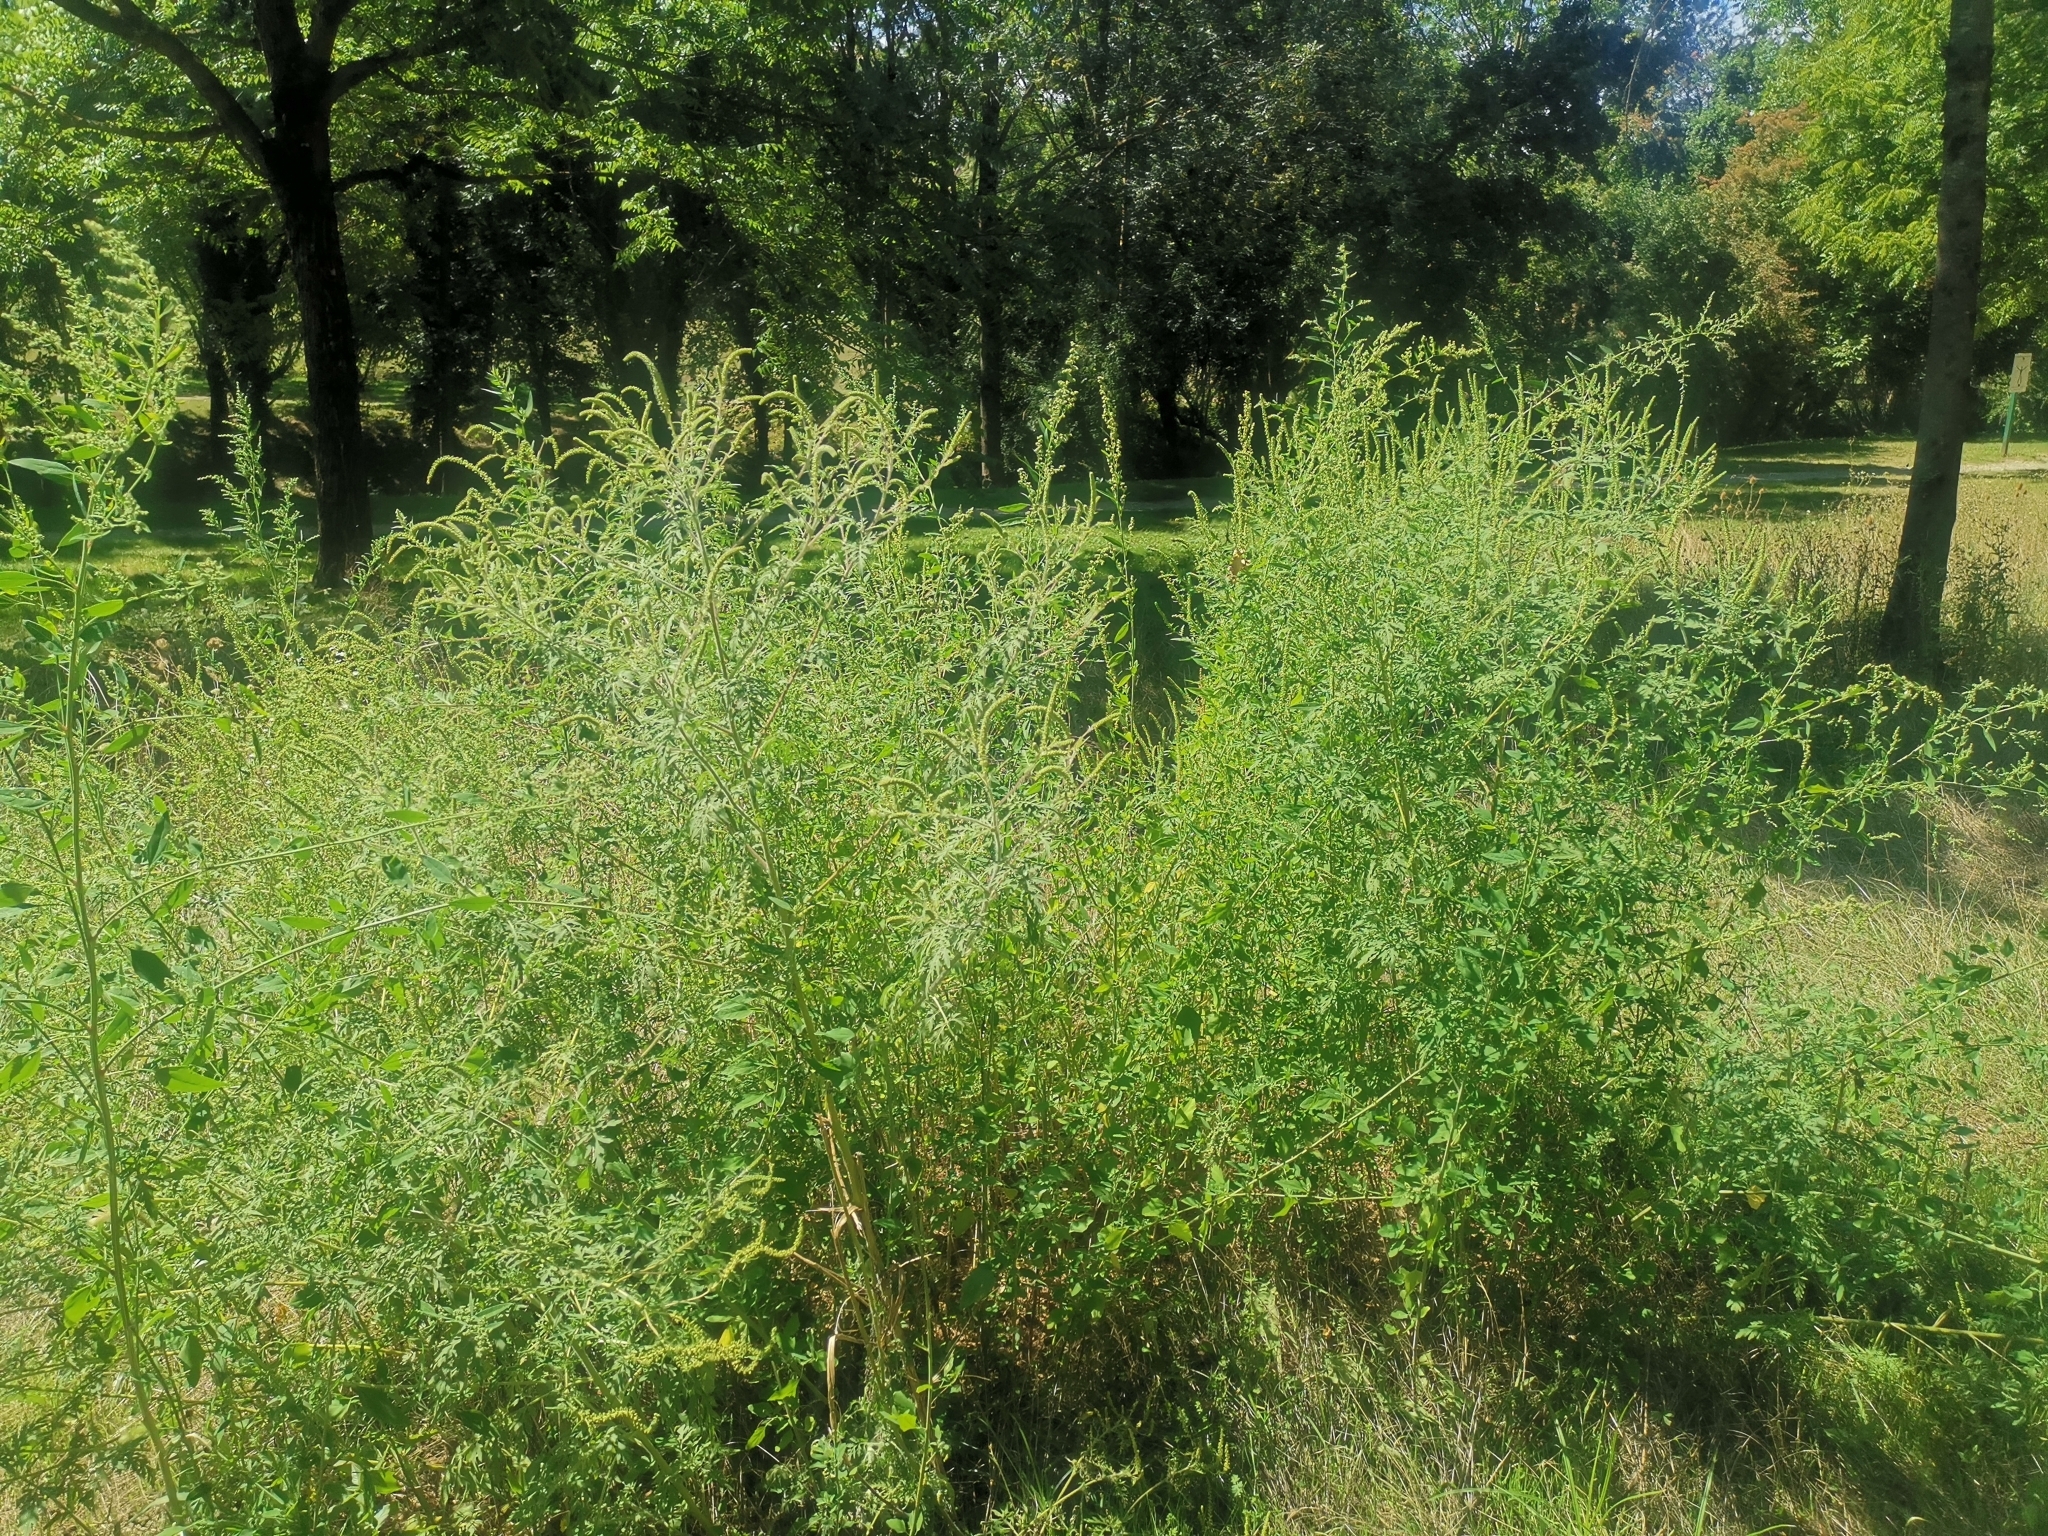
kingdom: Plantae
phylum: Tracheophyta
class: Magnoliopsida
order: Asterales
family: Asteraceae
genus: Ambrosia
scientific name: Ambrosia artemisiifolia
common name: Annual ragweed
